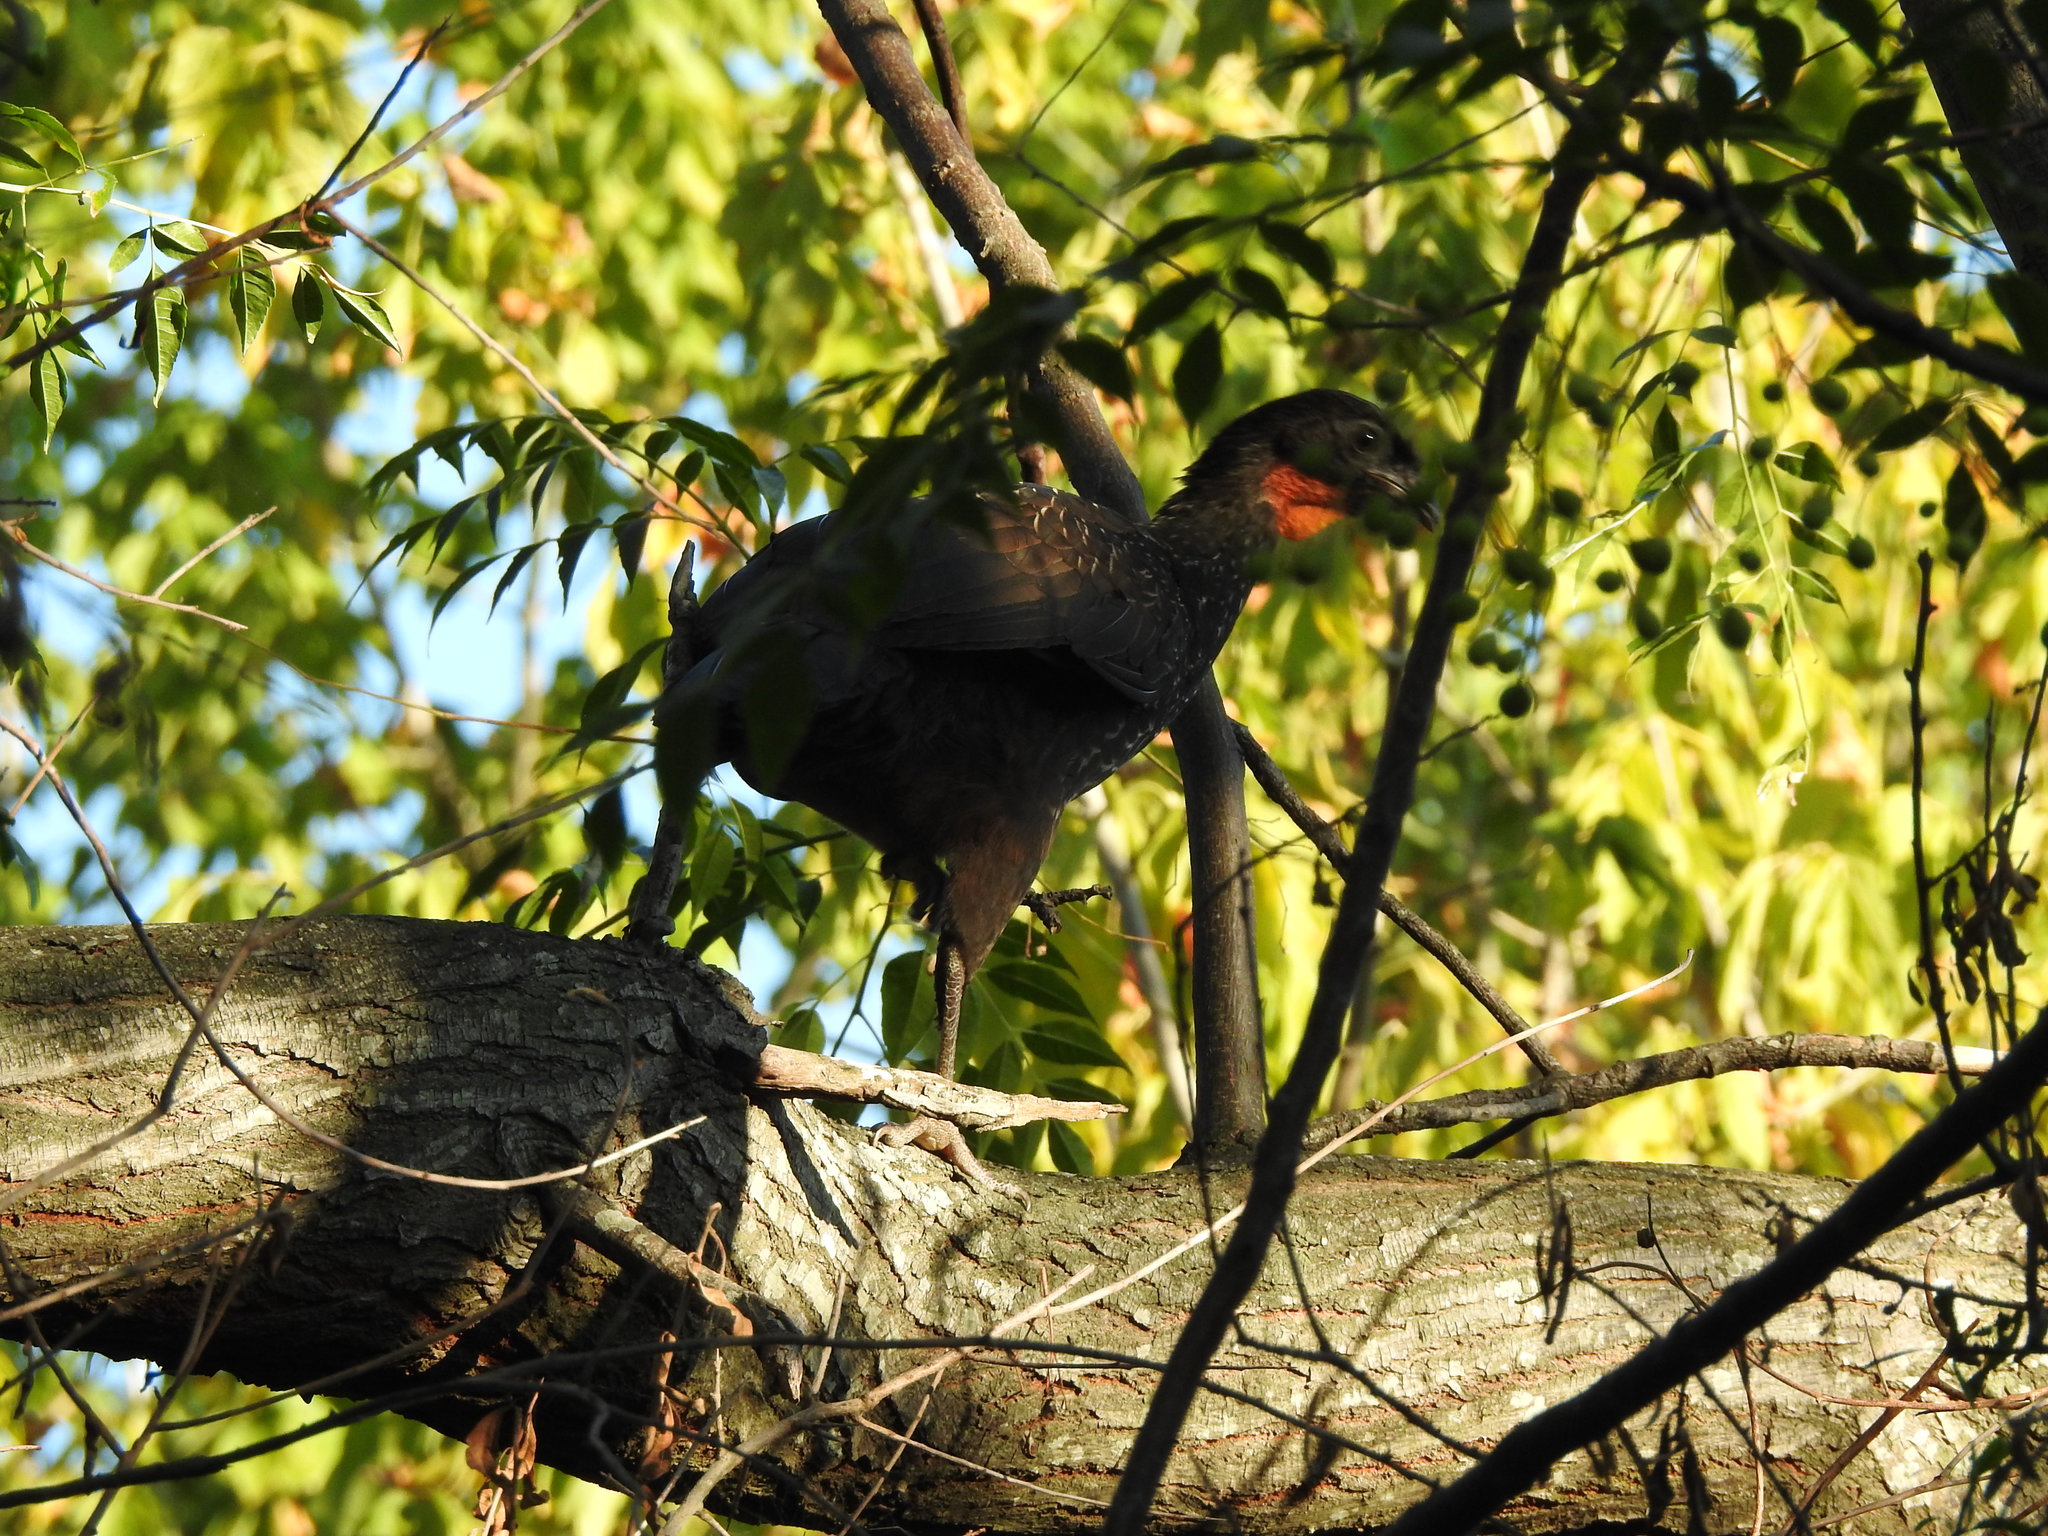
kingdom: Animalia
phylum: Chordata
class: Aves
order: Galliformes
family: Cracidae
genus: Penelope
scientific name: Penelope obscura
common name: Dusky-legged guan
